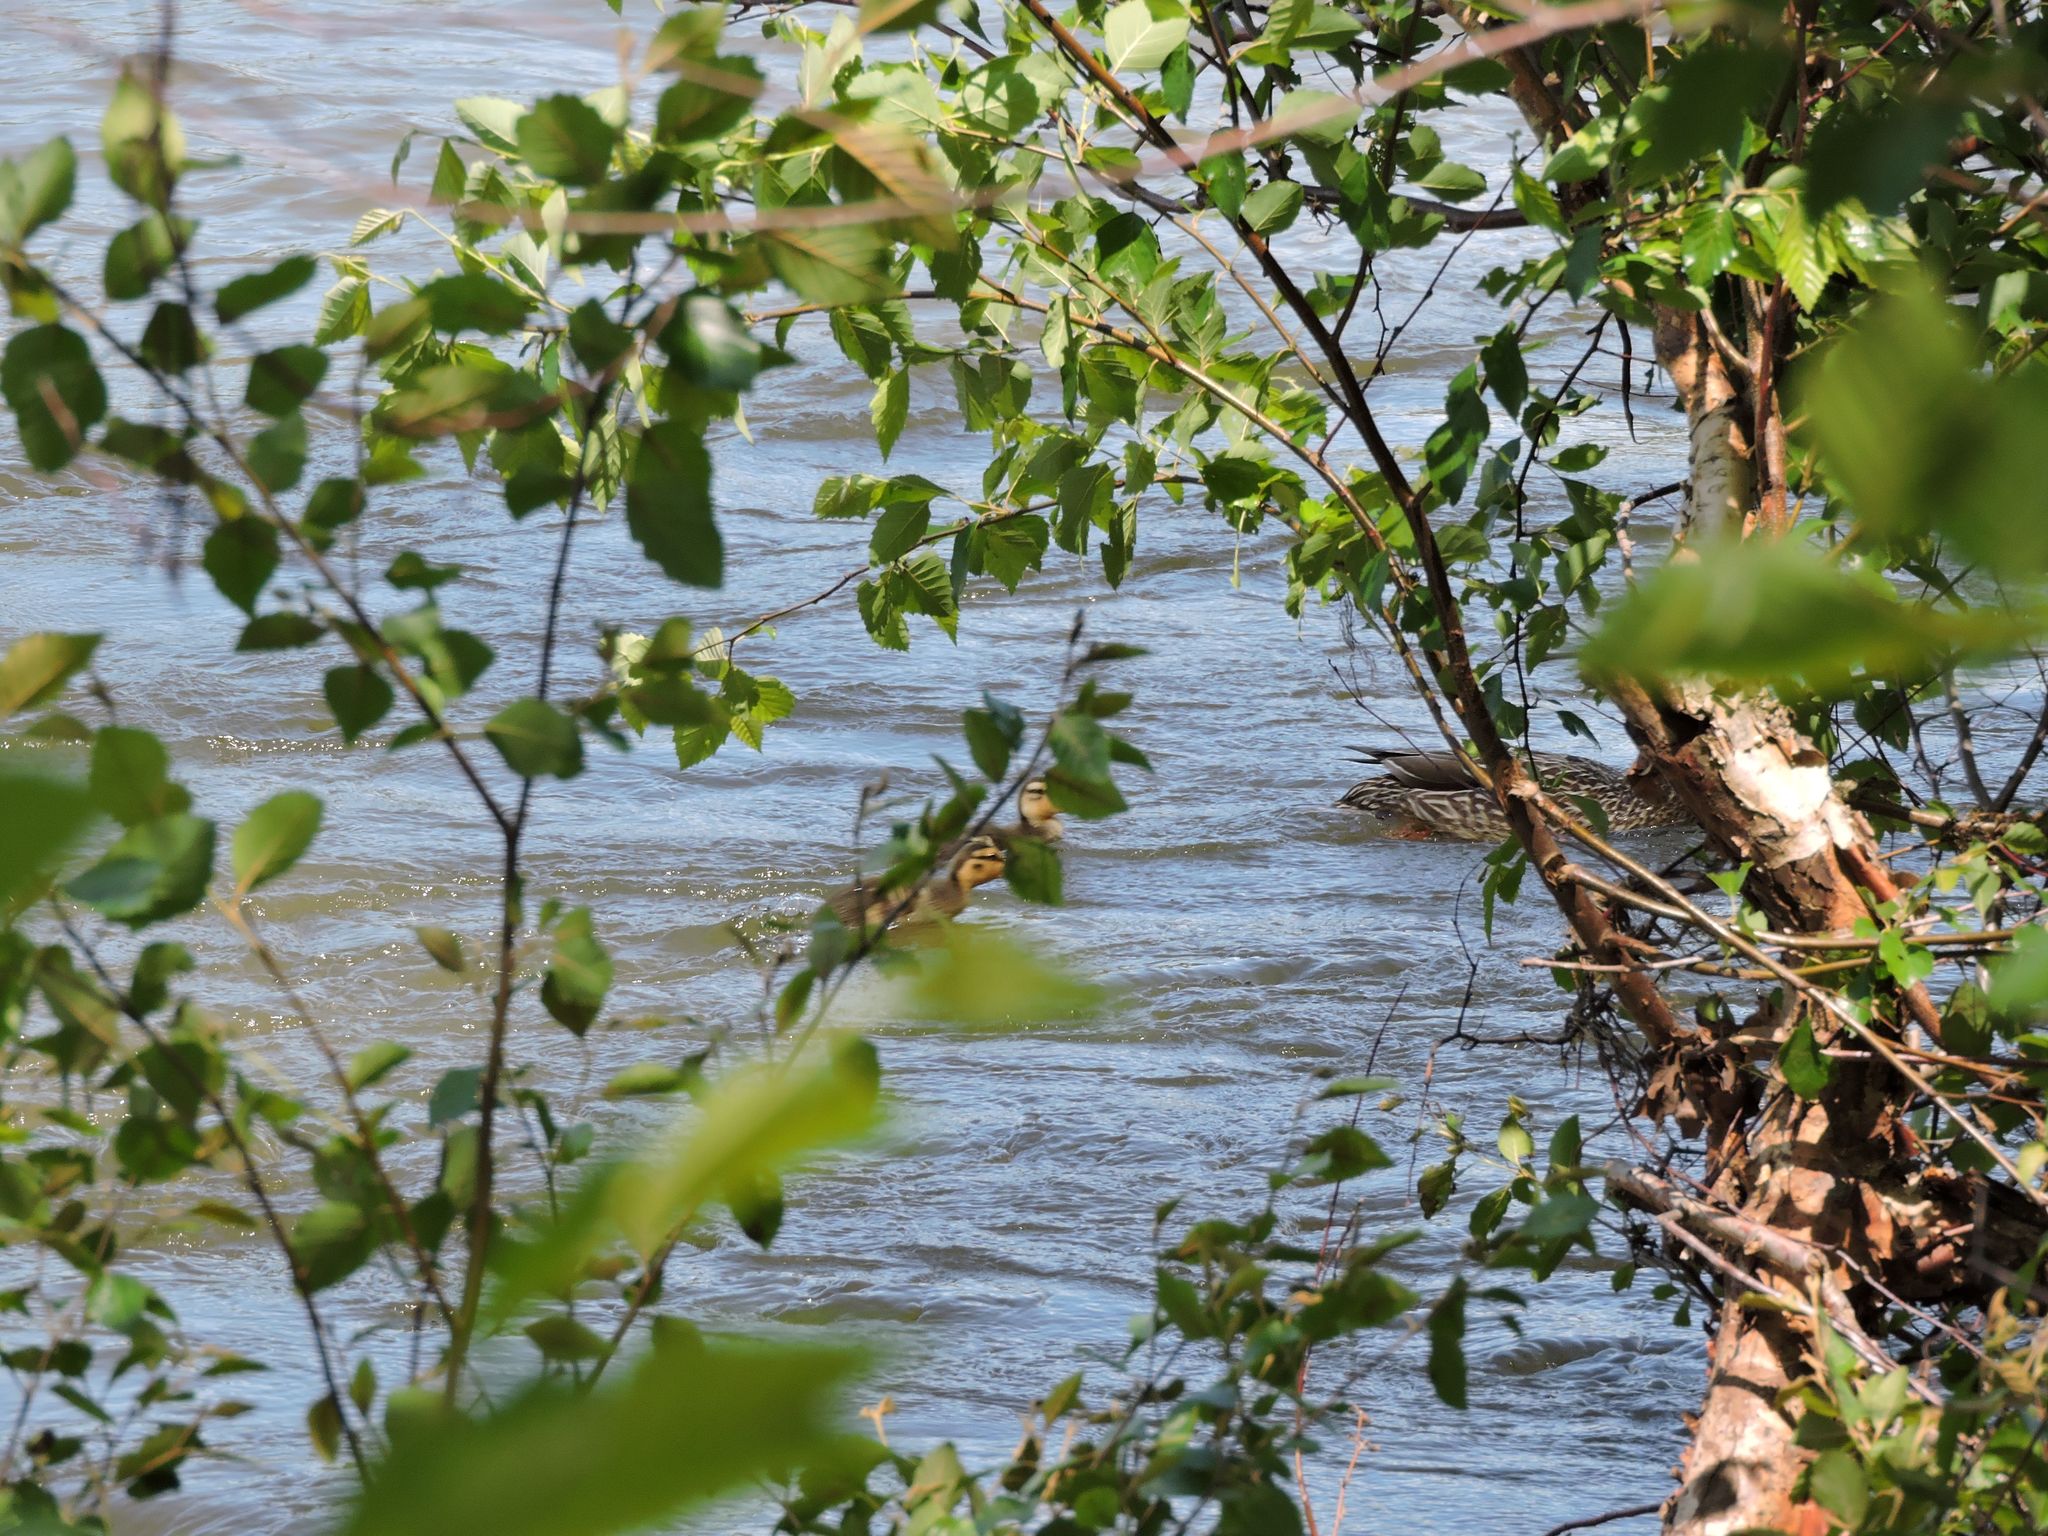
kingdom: Animalia
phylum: Chordata
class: Aves
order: Anseriformes
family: Anatidae
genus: Anas
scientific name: Anas platyrhynchos
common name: Mallard
